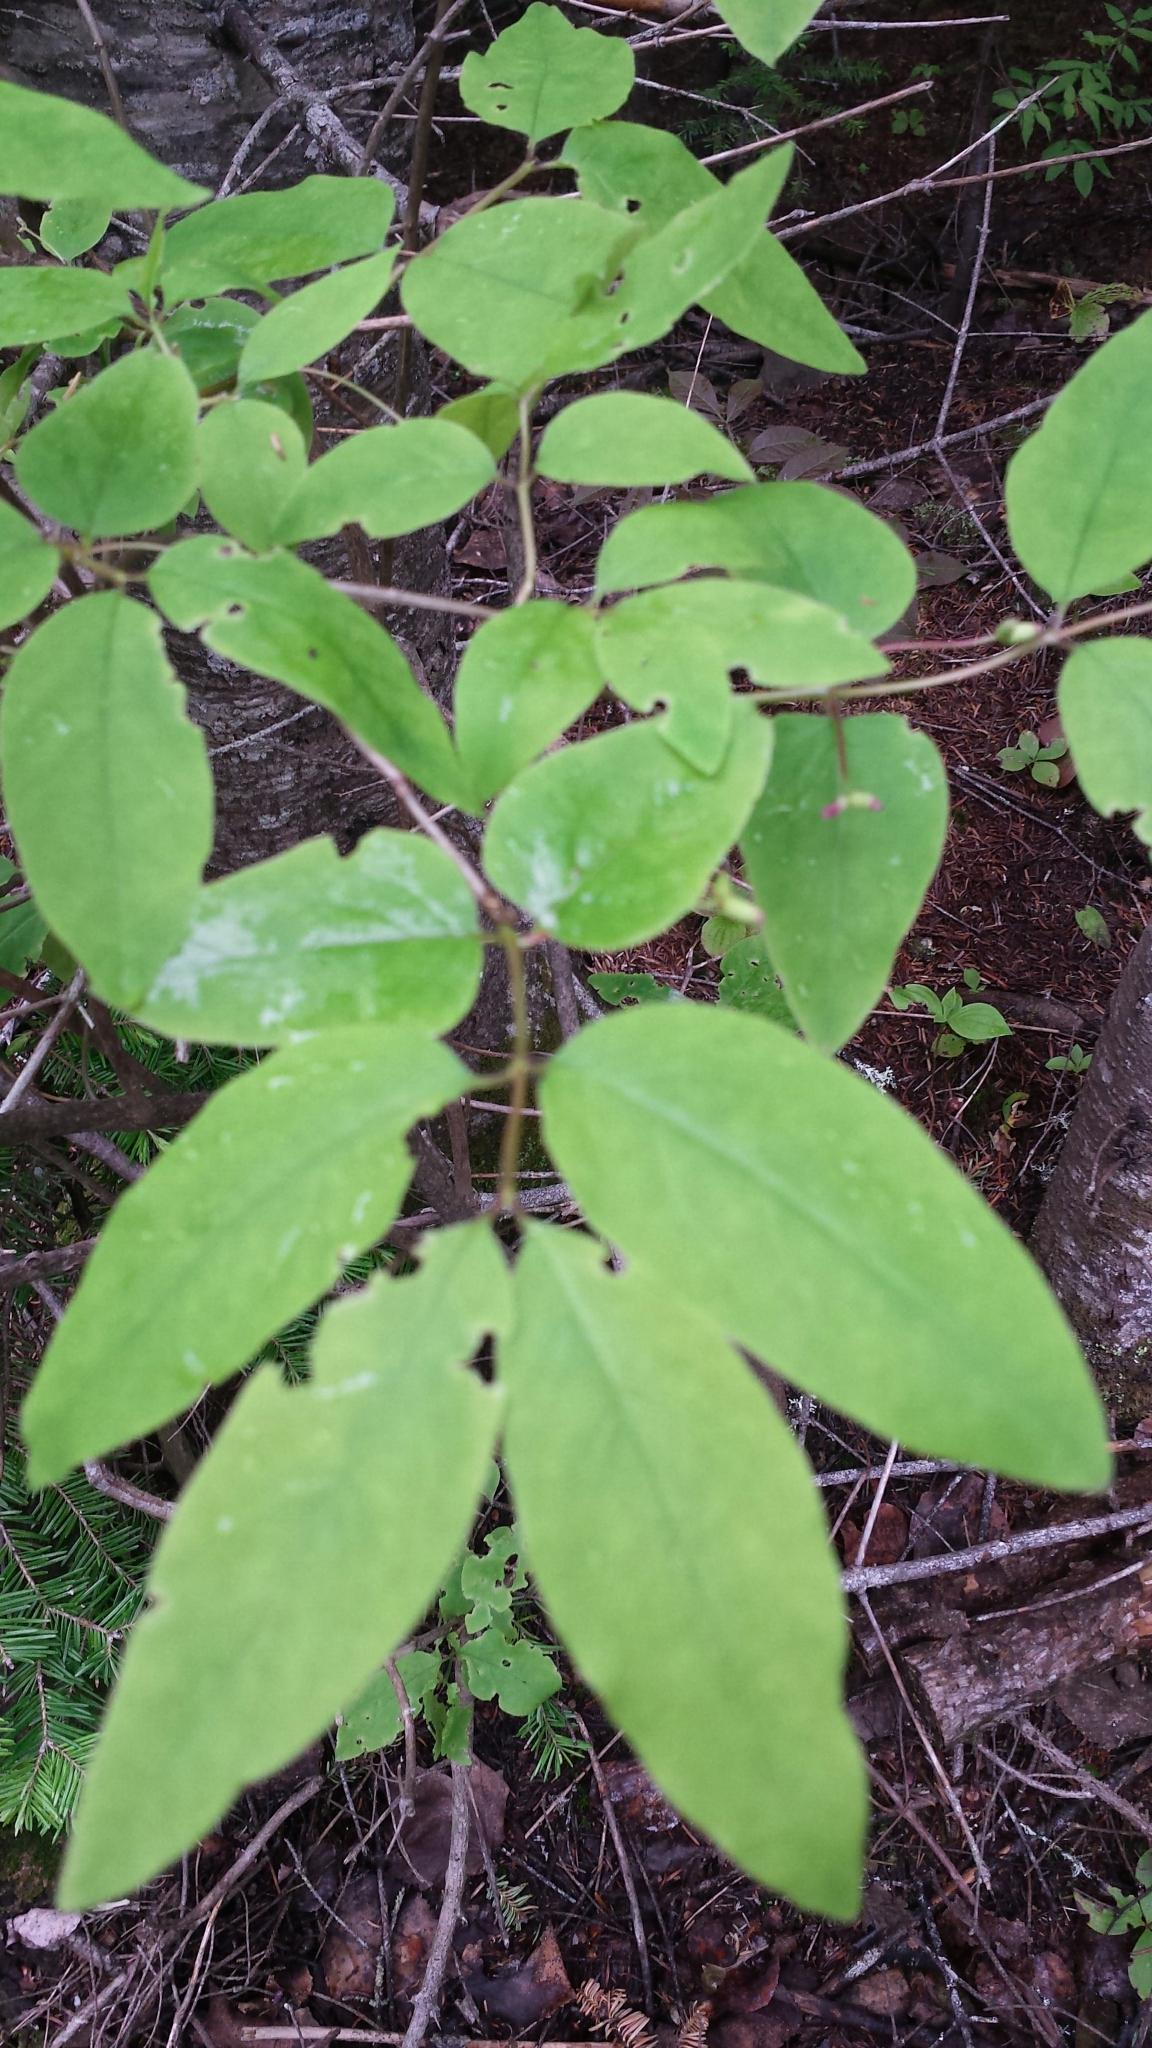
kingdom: Plantae
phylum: Tracheophyta
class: Magnoliopsida
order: Dipsacales
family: Caprifoliaceae
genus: Lonicera
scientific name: Lonicera canadensis
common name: American fly-honeysuckle
